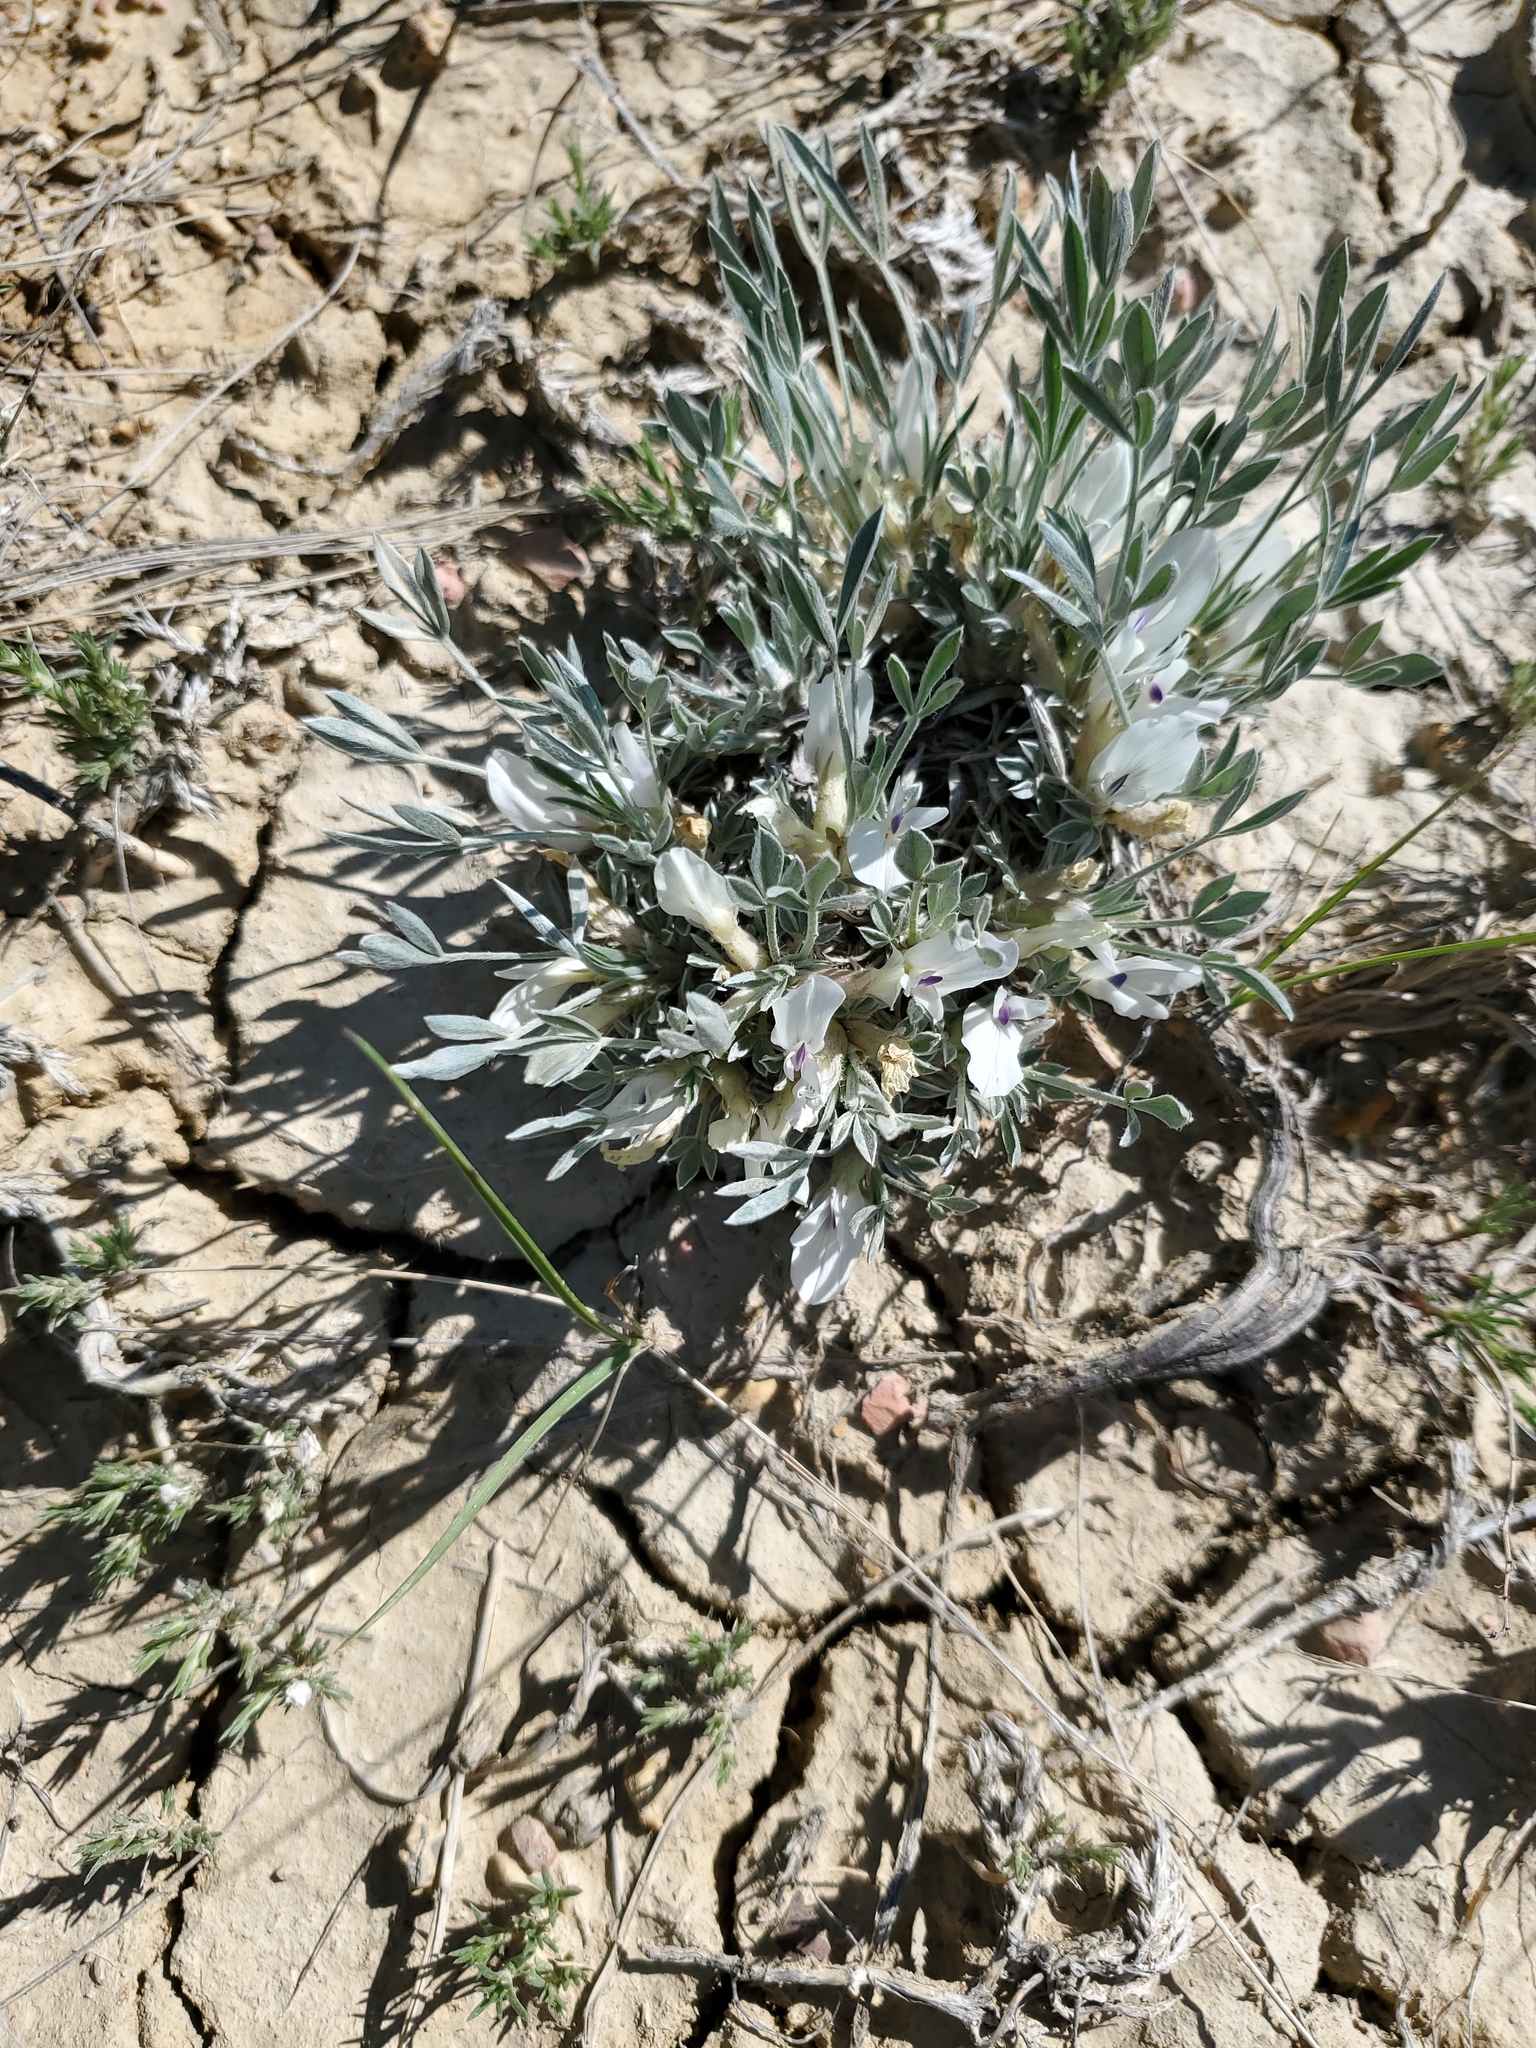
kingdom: Plantae
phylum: Tracheophyta
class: Magnoliopsida
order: Fabales
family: Fabaceae
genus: Astragalus
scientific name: Astragalus gilviflorus
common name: Cushion milk-vetch
